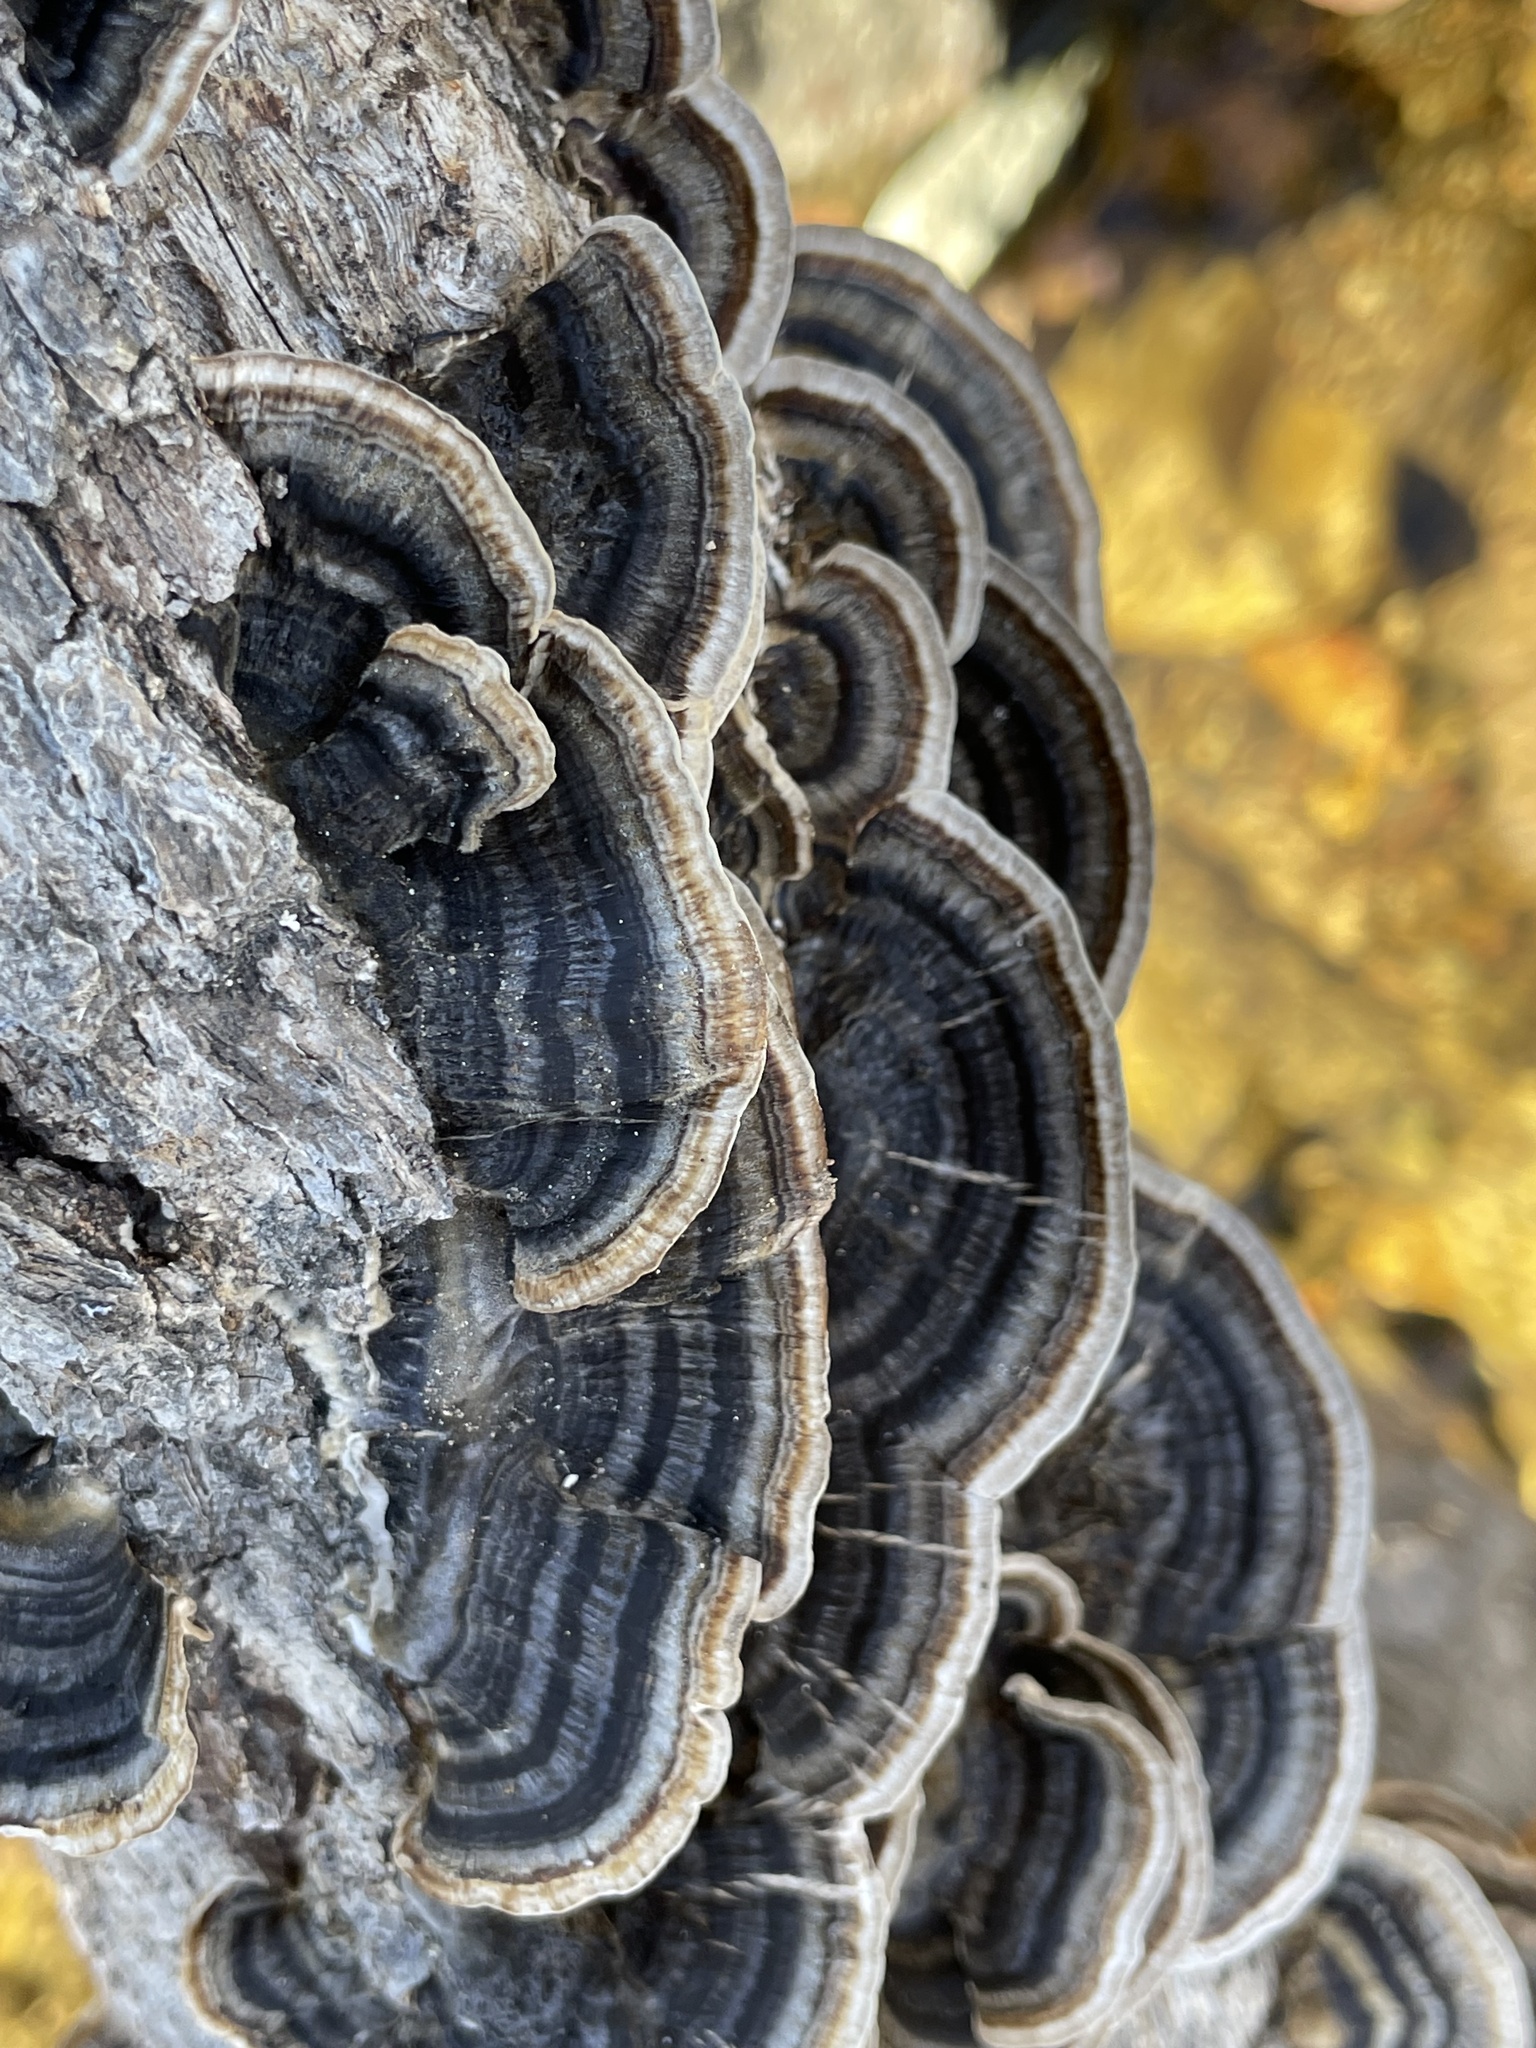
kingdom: Fungi
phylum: Basidiomycota
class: Agaricomycetes
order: Polyporales
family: Polyporaceae
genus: Trametes
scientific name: Trametes versicolor
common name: Turkeytail
